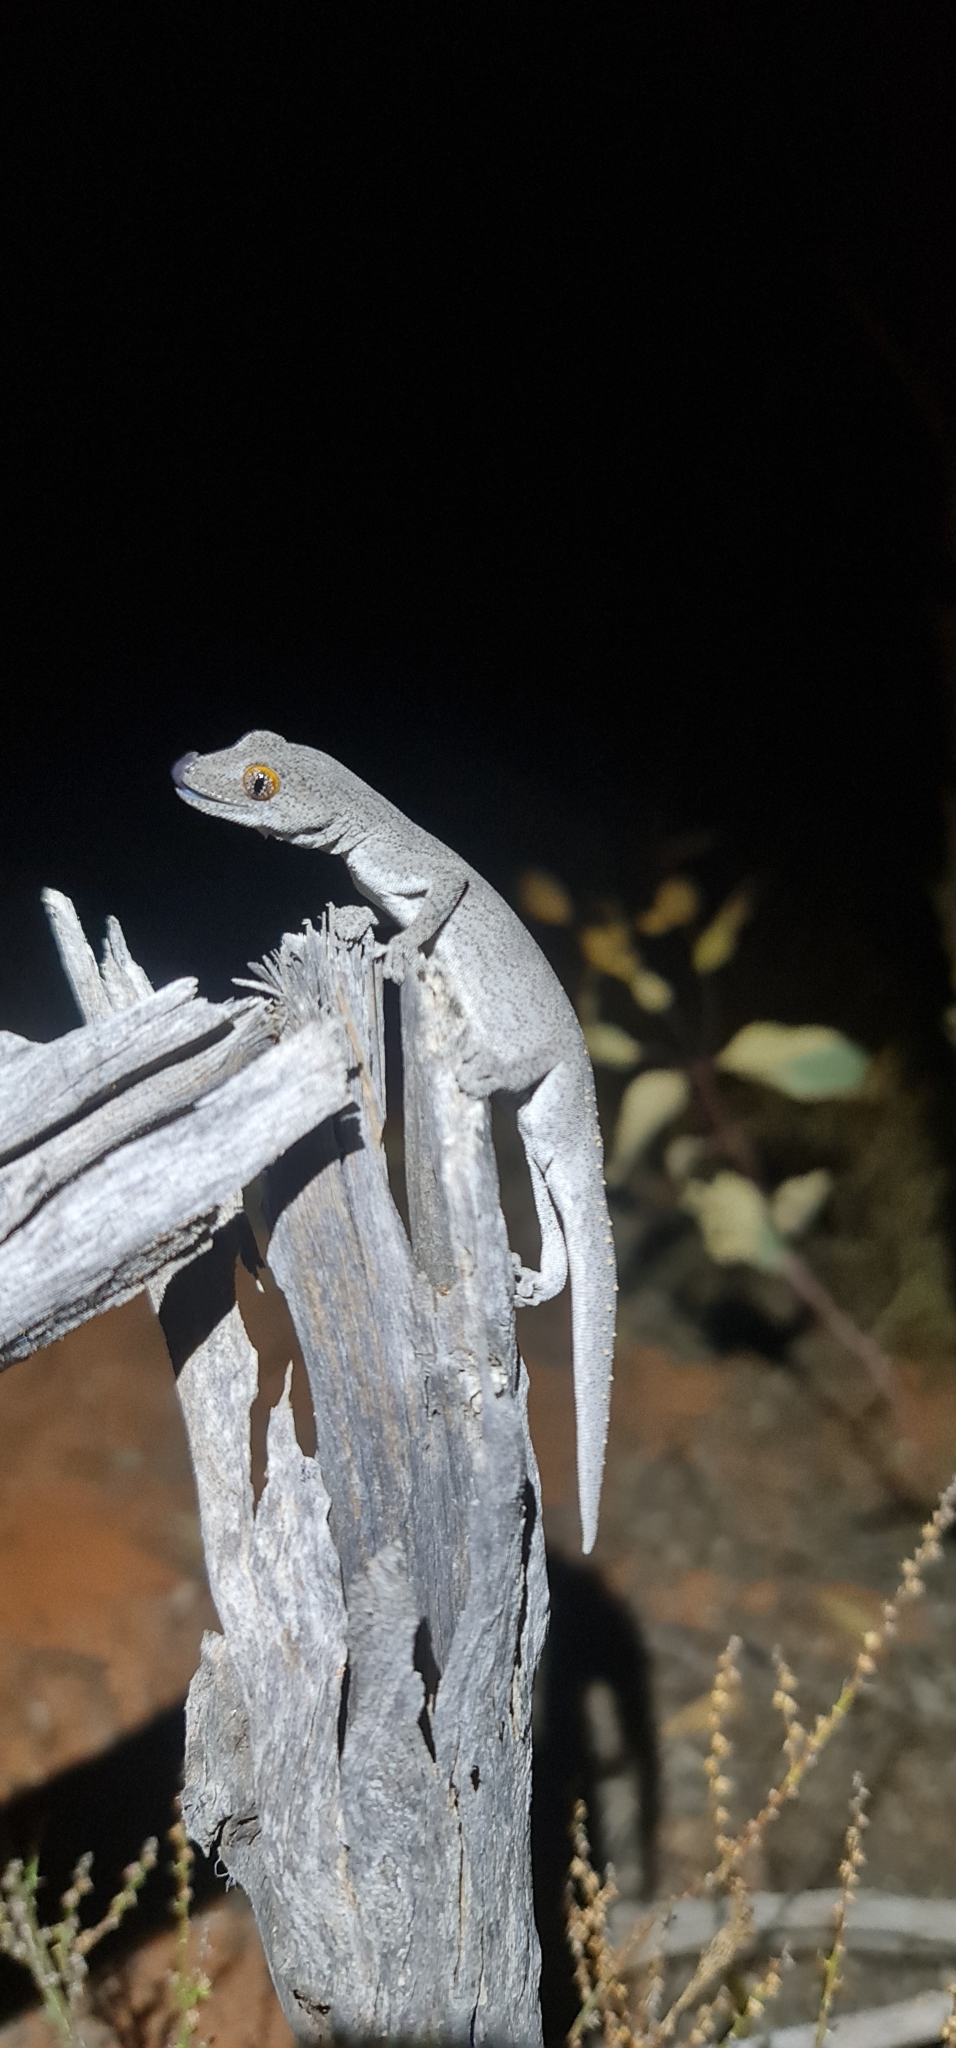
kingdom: Animalia
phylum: Chordata
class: Squamata
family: Diplodactylidae
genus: Strophurus
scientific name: Strophurus williamsi
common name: Eastern spiny-tailed gecko
